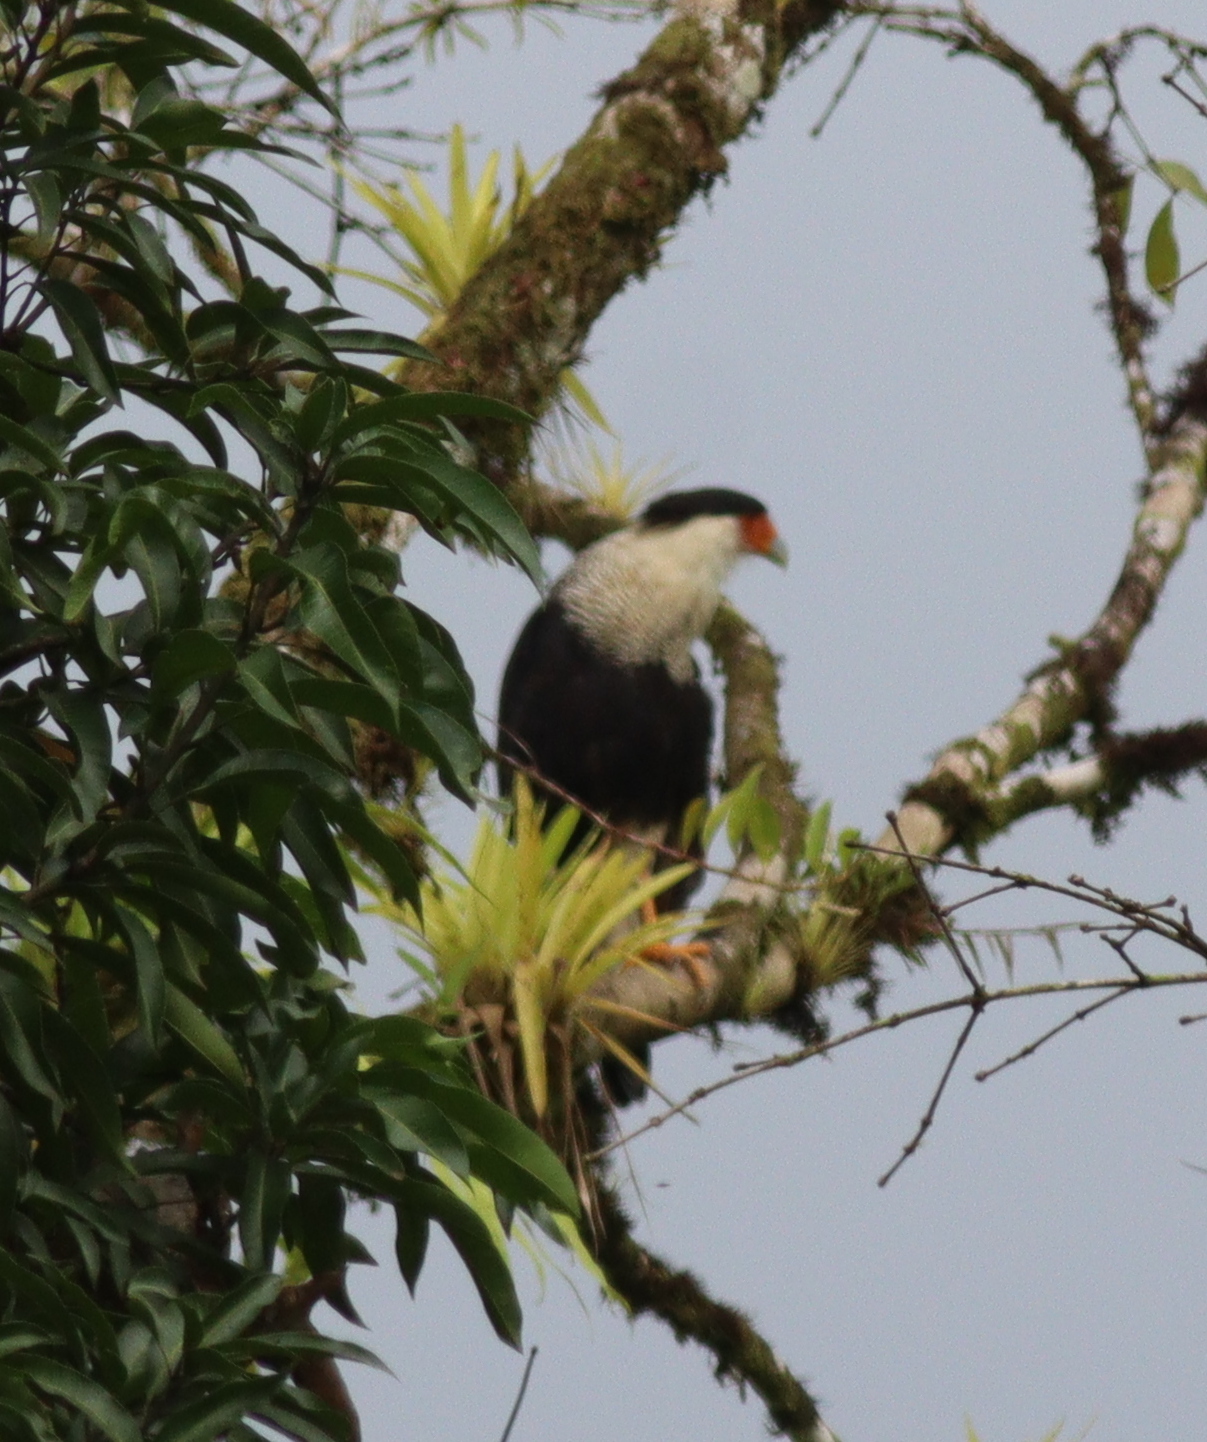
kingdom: Animalia
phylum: Chordata
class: Aves
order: Falconiformes
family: Falconidae
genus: Caracara
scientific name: Caracara plancus
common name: Southern caracara
